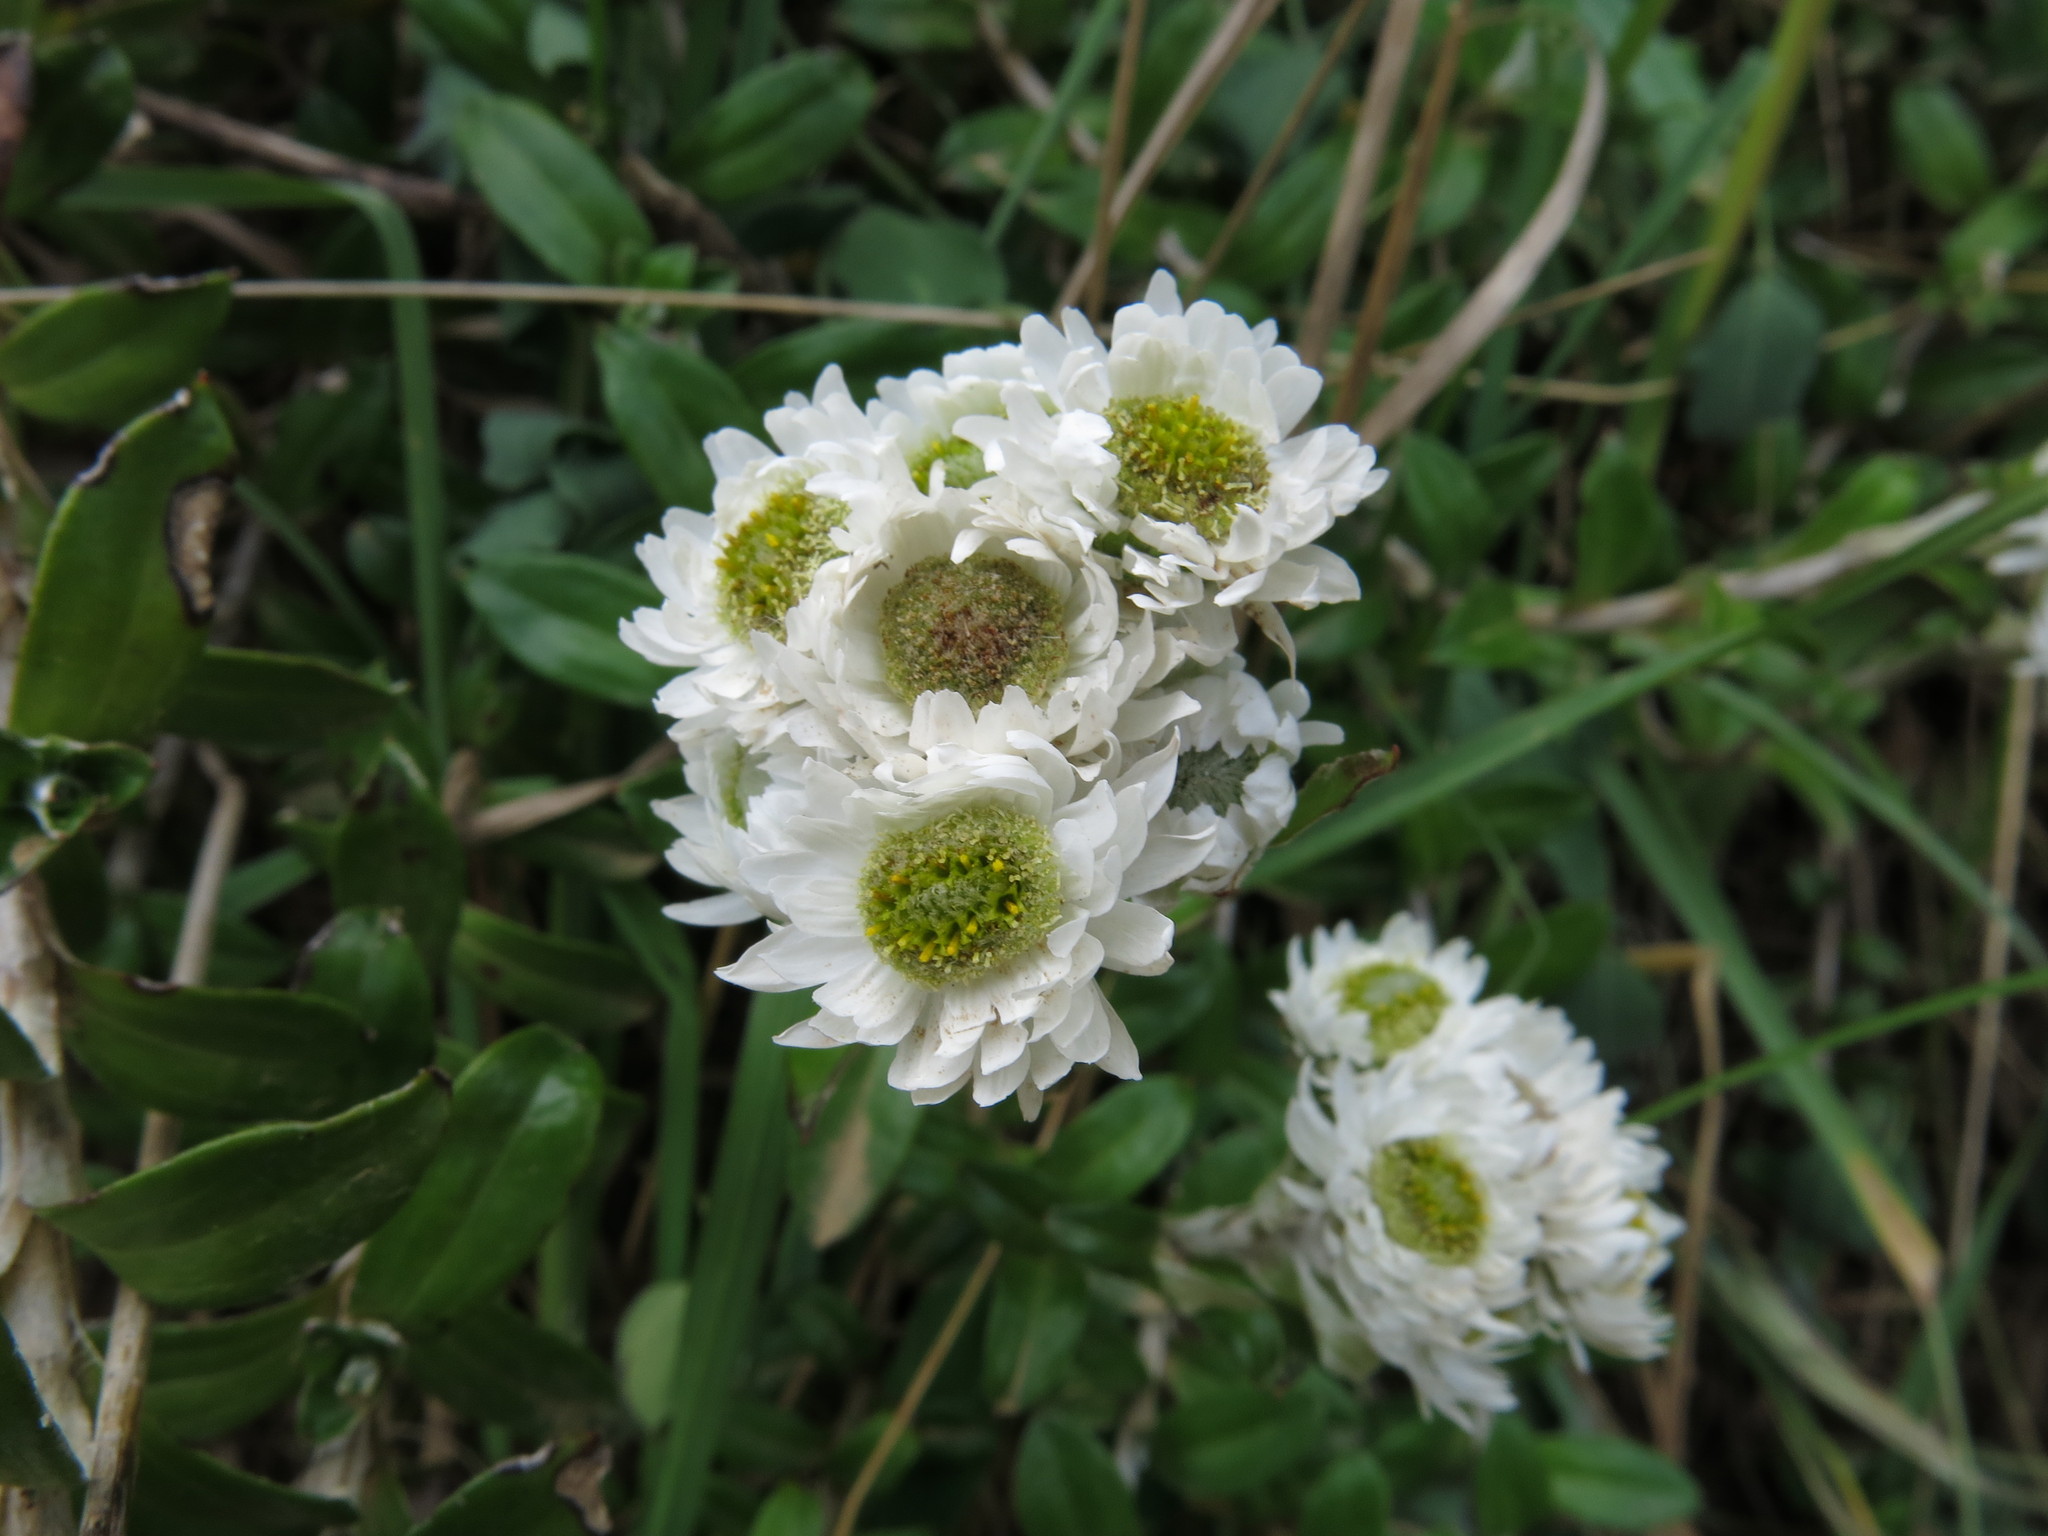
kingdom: Plantae
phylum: Tracheophyta
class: Magnoliopsida
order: Asterales
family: Asteraceae
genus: Anaphalioides
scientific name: Anaphalioides hookeri
